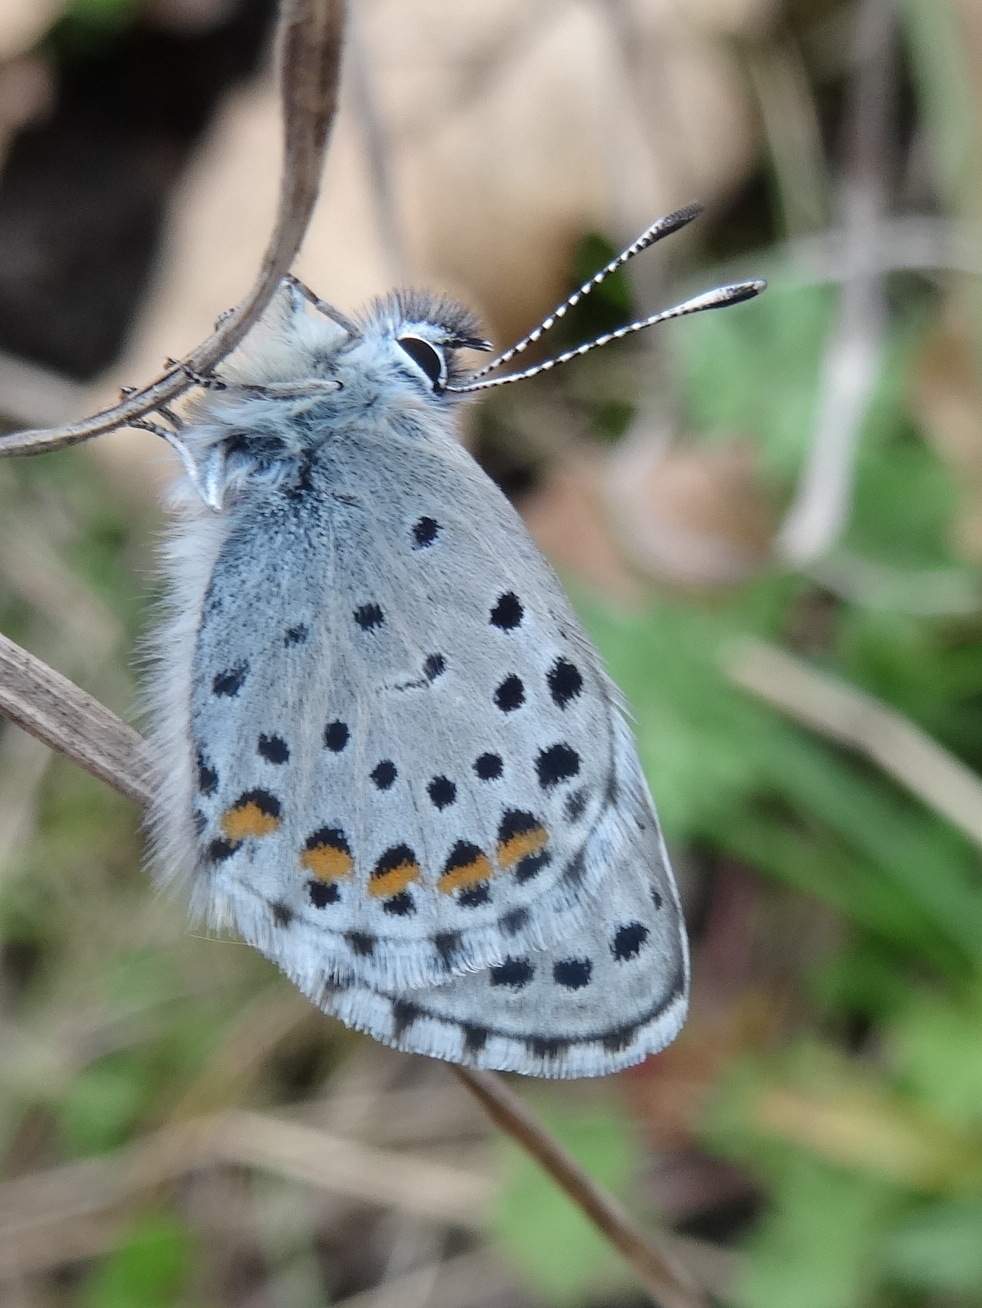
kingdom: Animalia
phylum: Arthropoda
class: Insecta
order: Lepidoptera
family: Lycaenidae
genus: Pseudophilotes
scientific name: Pseudophilotes baton
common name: Baton blue
